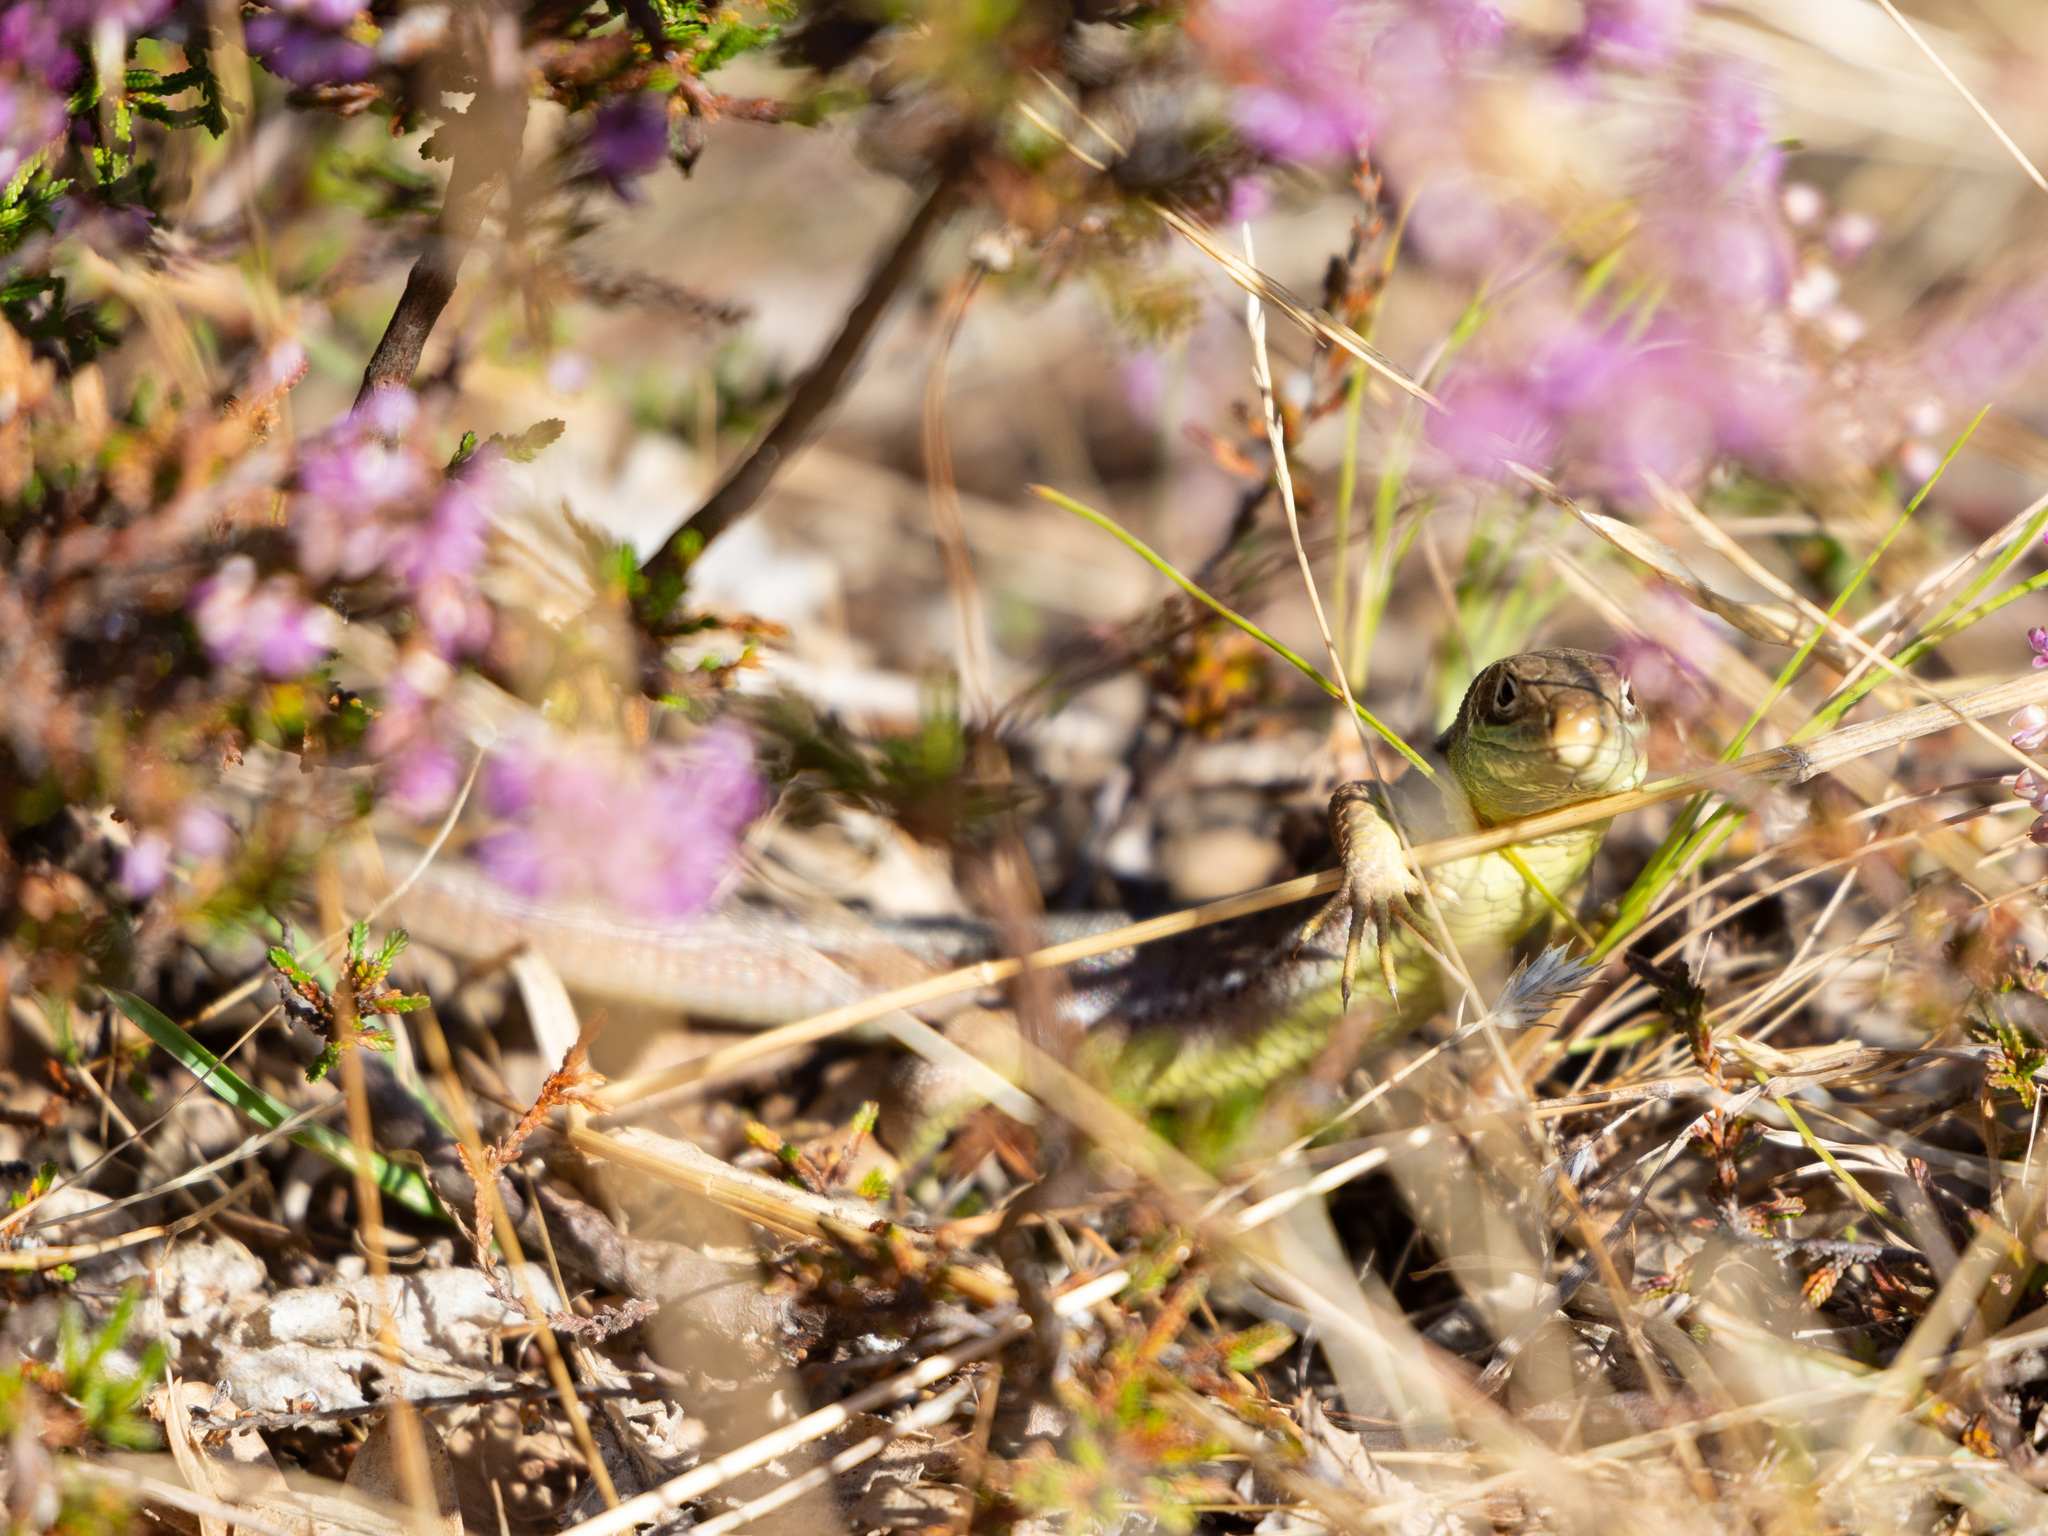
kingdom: Animalia
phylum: Chordata
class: Squamata
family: Lacertidae
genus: Lacerta
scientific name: Lacerta bilineata
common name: Western green lizard
